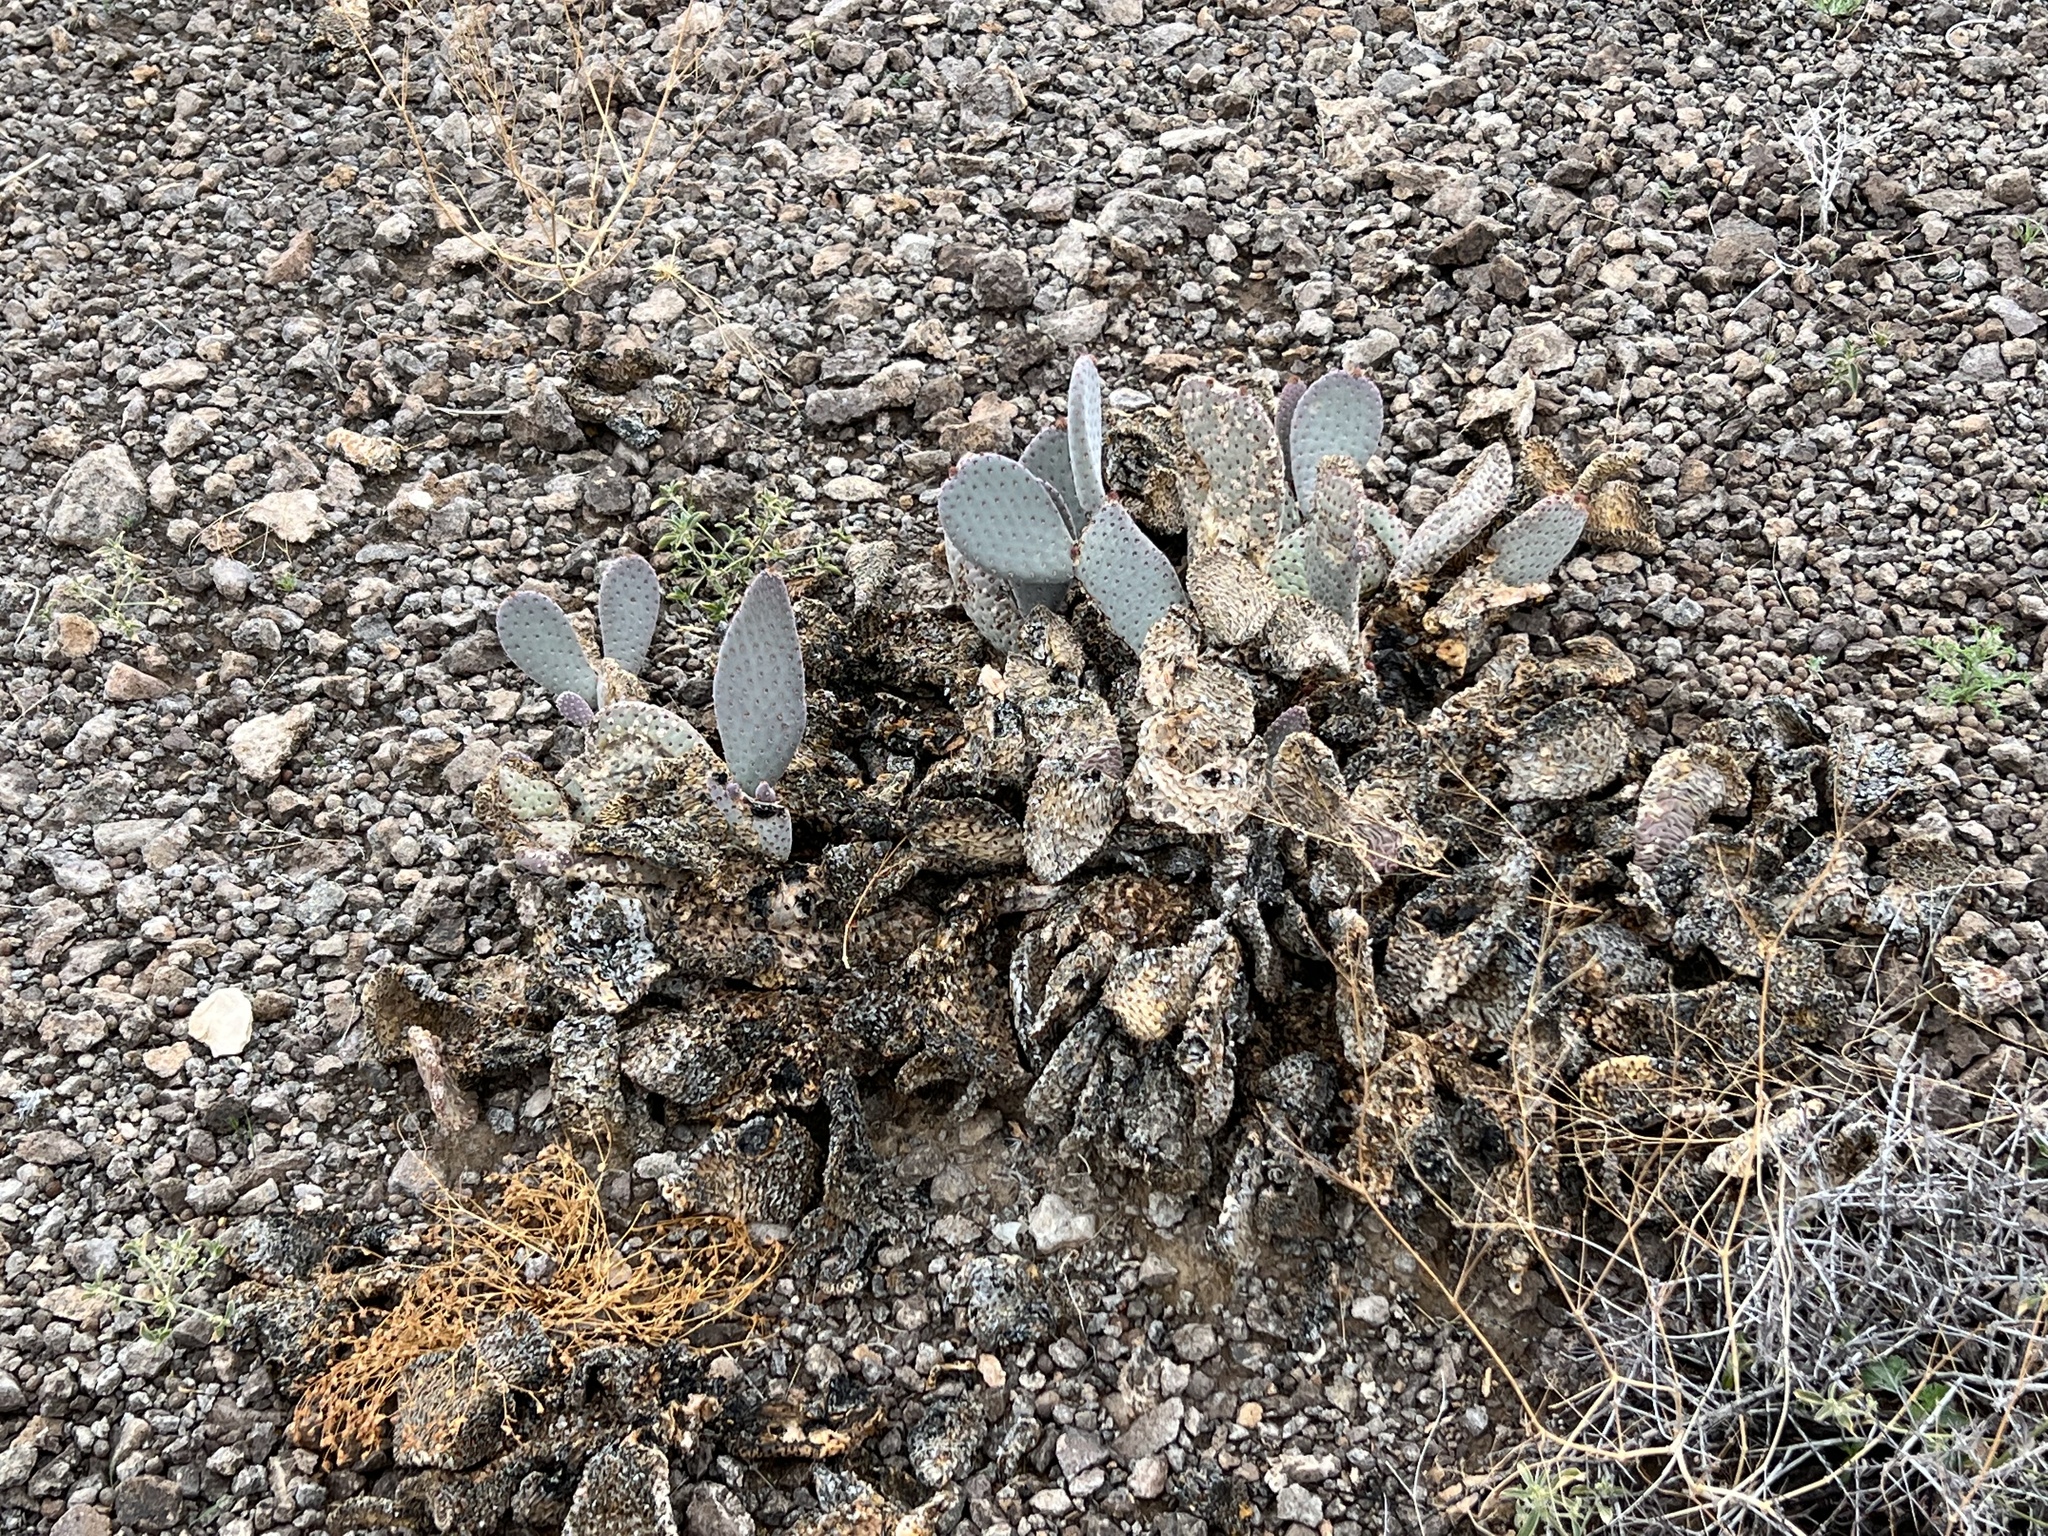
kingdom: Plantae
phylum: Tracheophyta
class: Magnoliopsida
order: Caryophyllales
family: Cactaceae
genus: Opuntia
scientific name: Opuntia basilaris
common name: Beavertail prickly-pear
